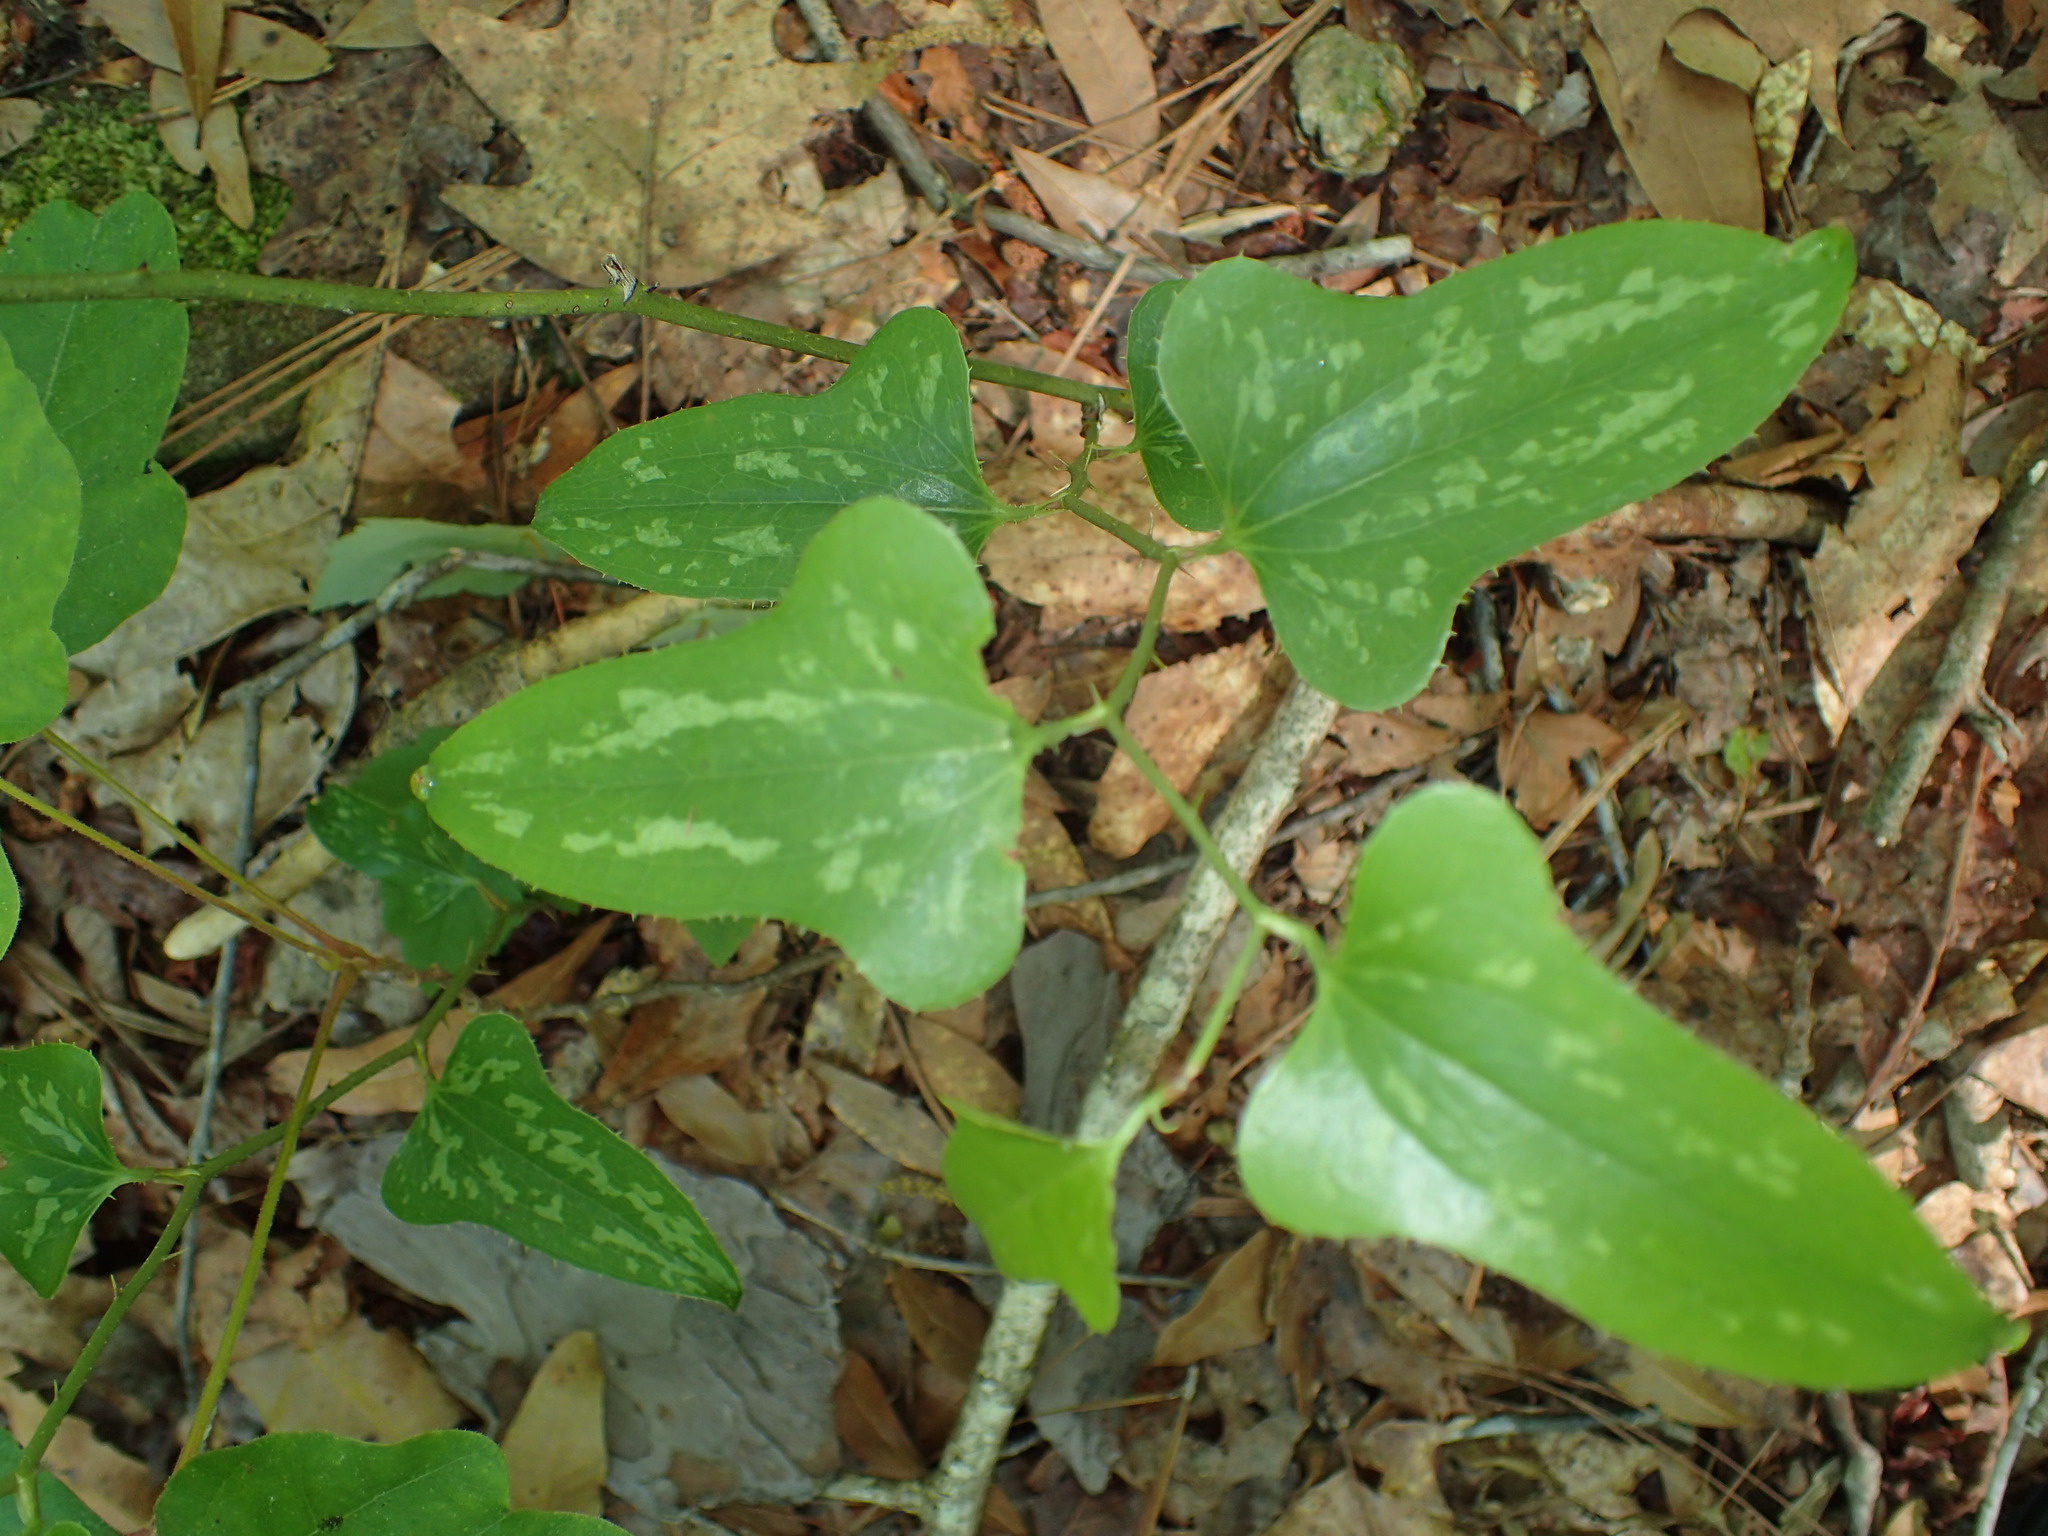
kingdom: Plantae
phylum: Tracheophyta
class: Liliopsida
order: Liliales
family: Smilacaceae
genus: Smilax
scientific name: Smilax bona-nox
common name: Catbrier
